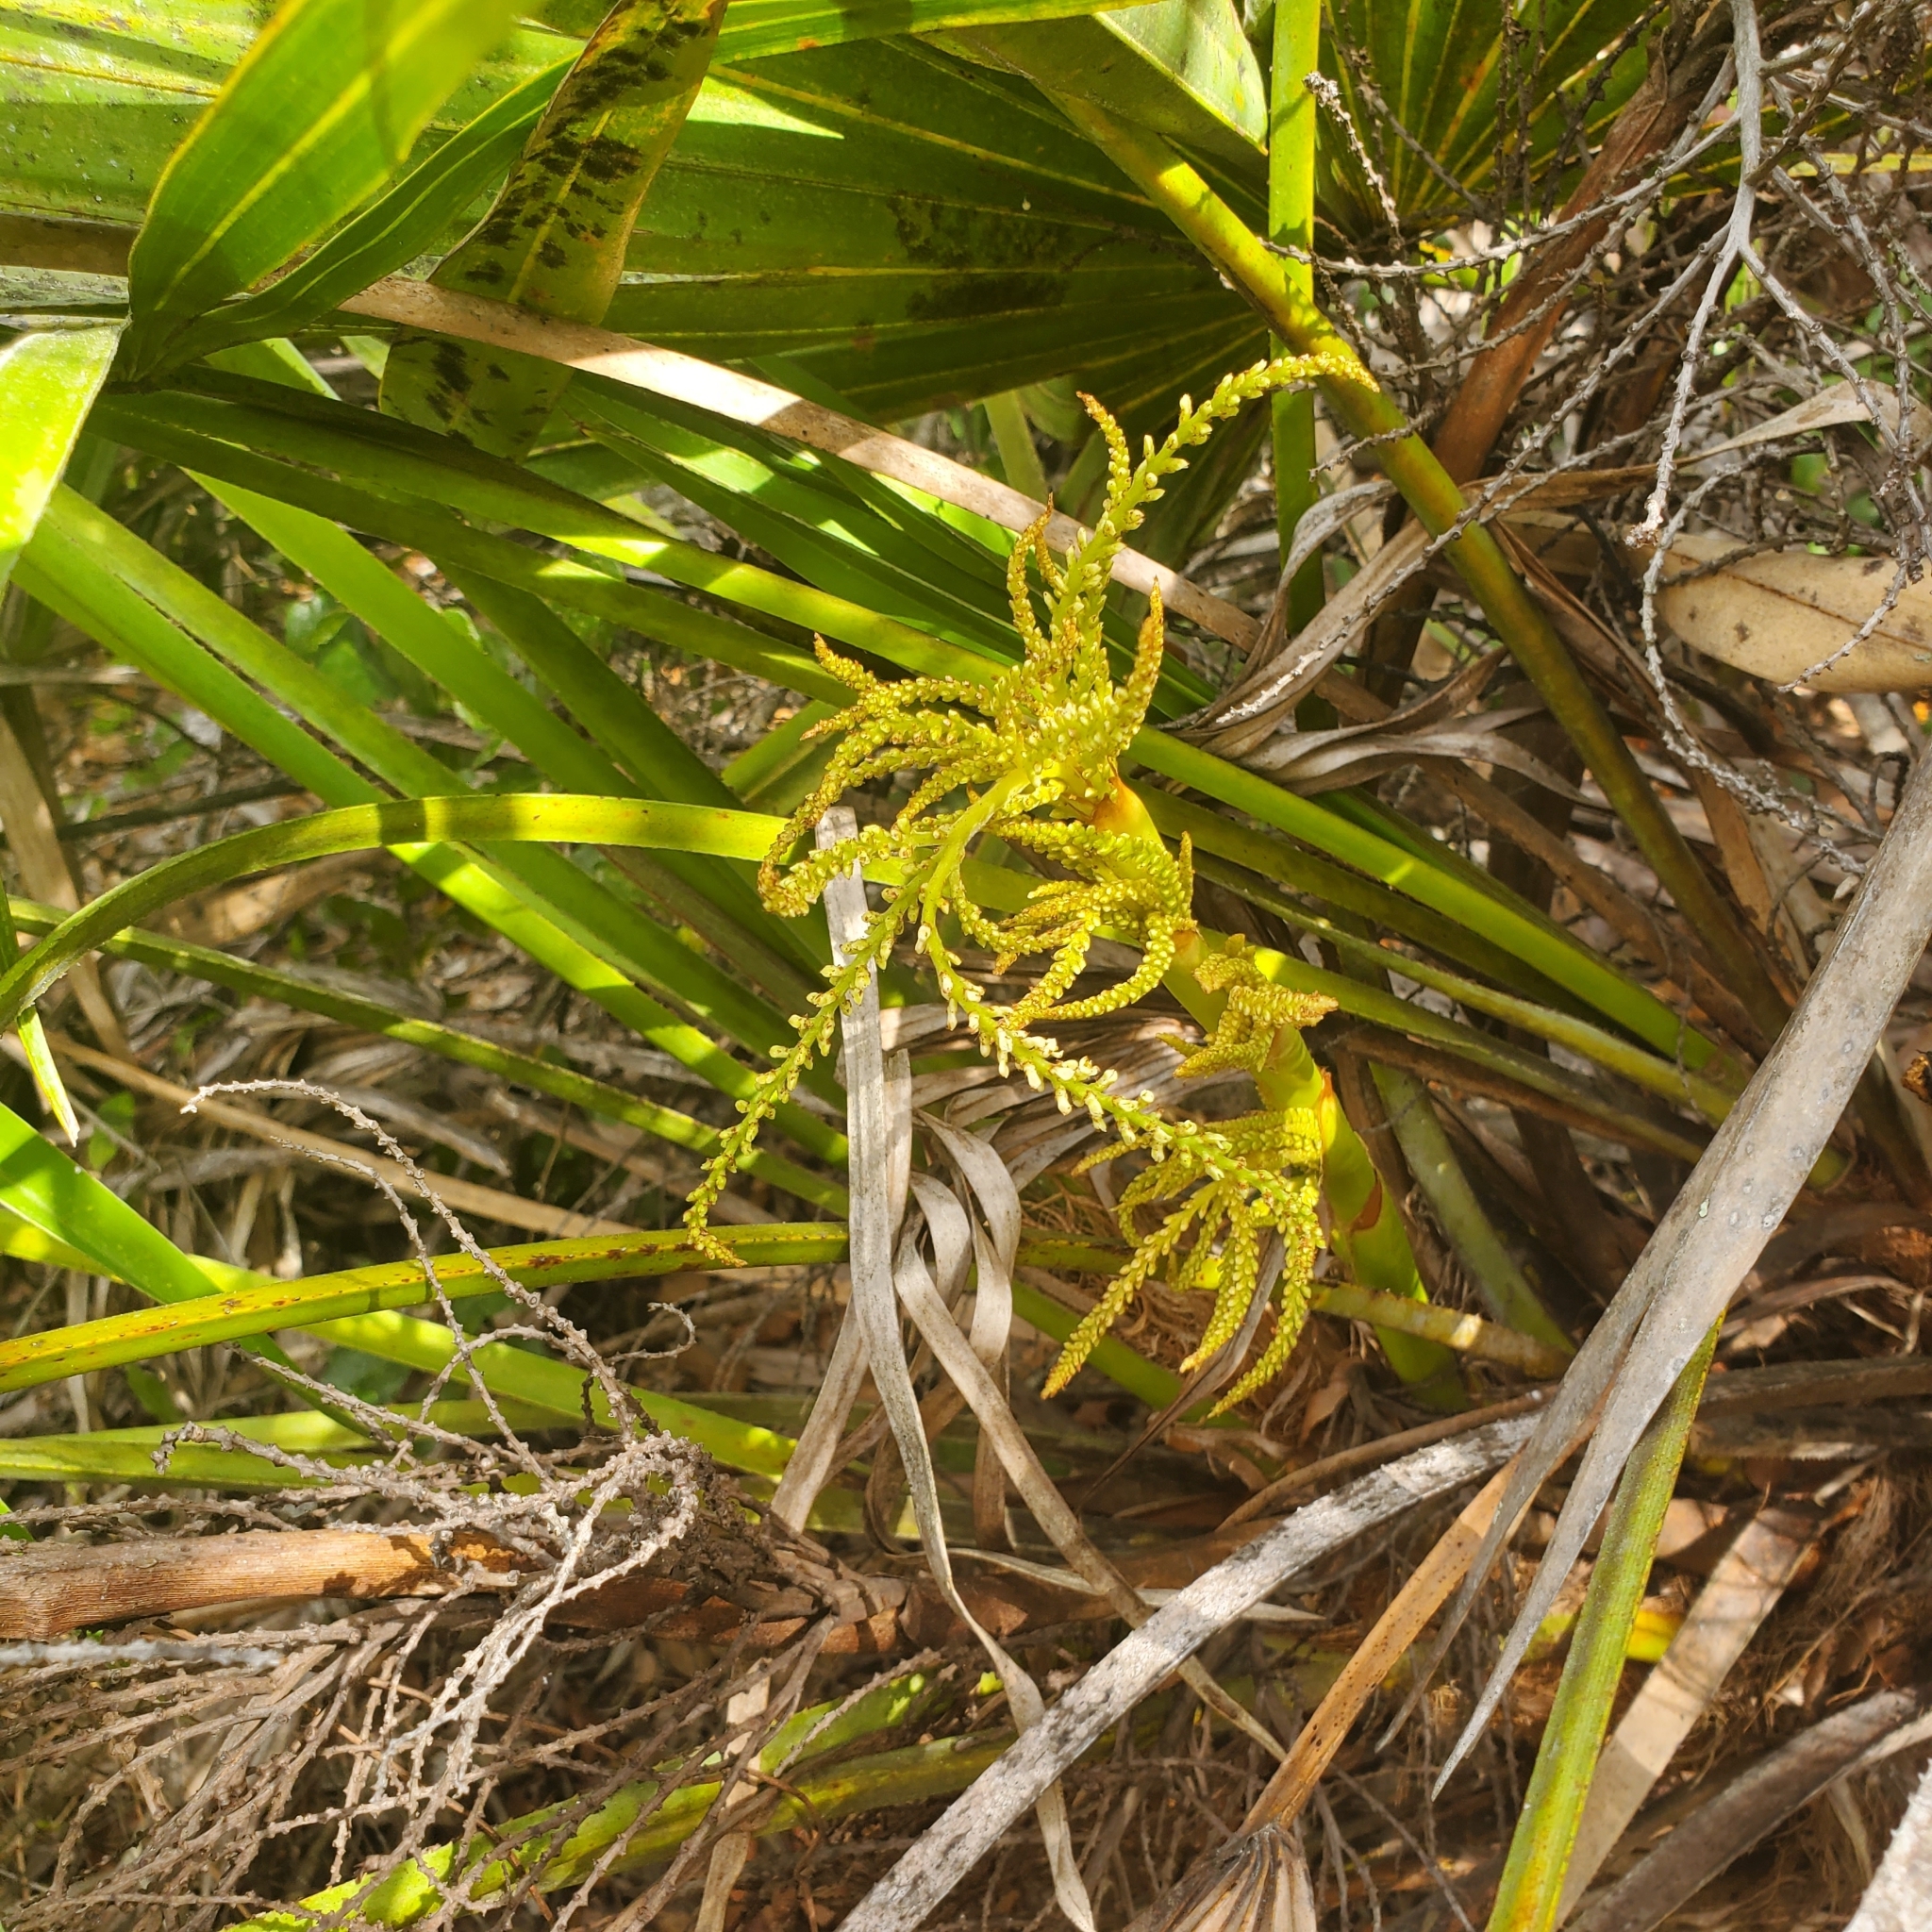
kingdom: Plantae
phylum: Tracheophyta
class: Liliopsida
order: Arecales
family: Arecaceae
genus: Serenoa
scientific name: Serenoa repens
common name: Saw-palmetto
